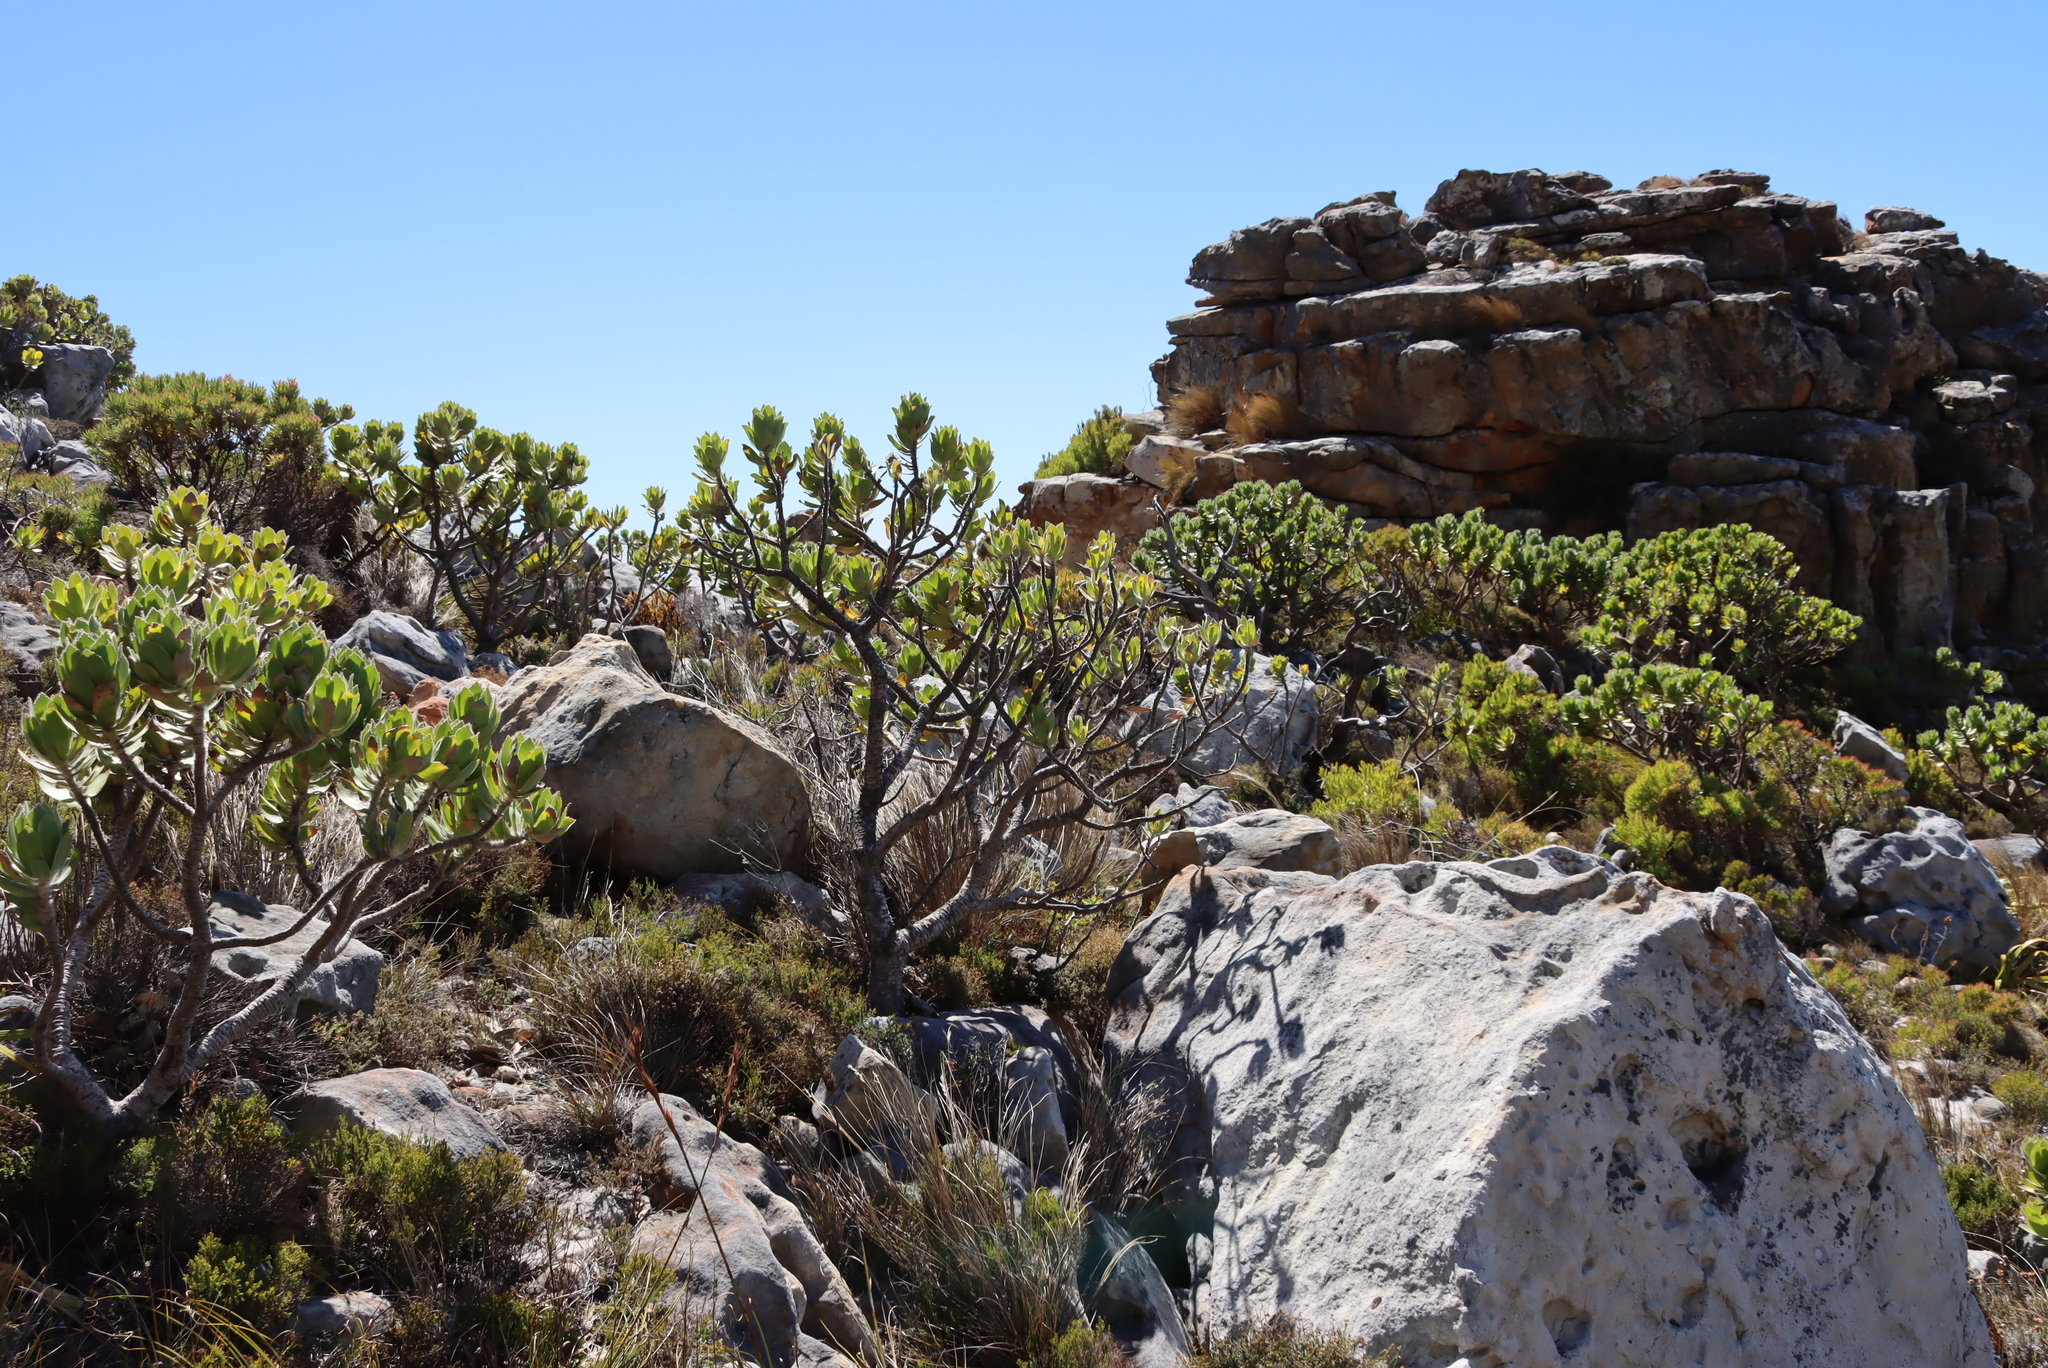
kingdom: Plantae
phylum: Tracheophyta
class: Magnoliopsida
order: Proteales
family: Proteaceae
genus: Leucospermum
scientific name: Leucospermum conocarpodendron
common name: Tree pincushion
